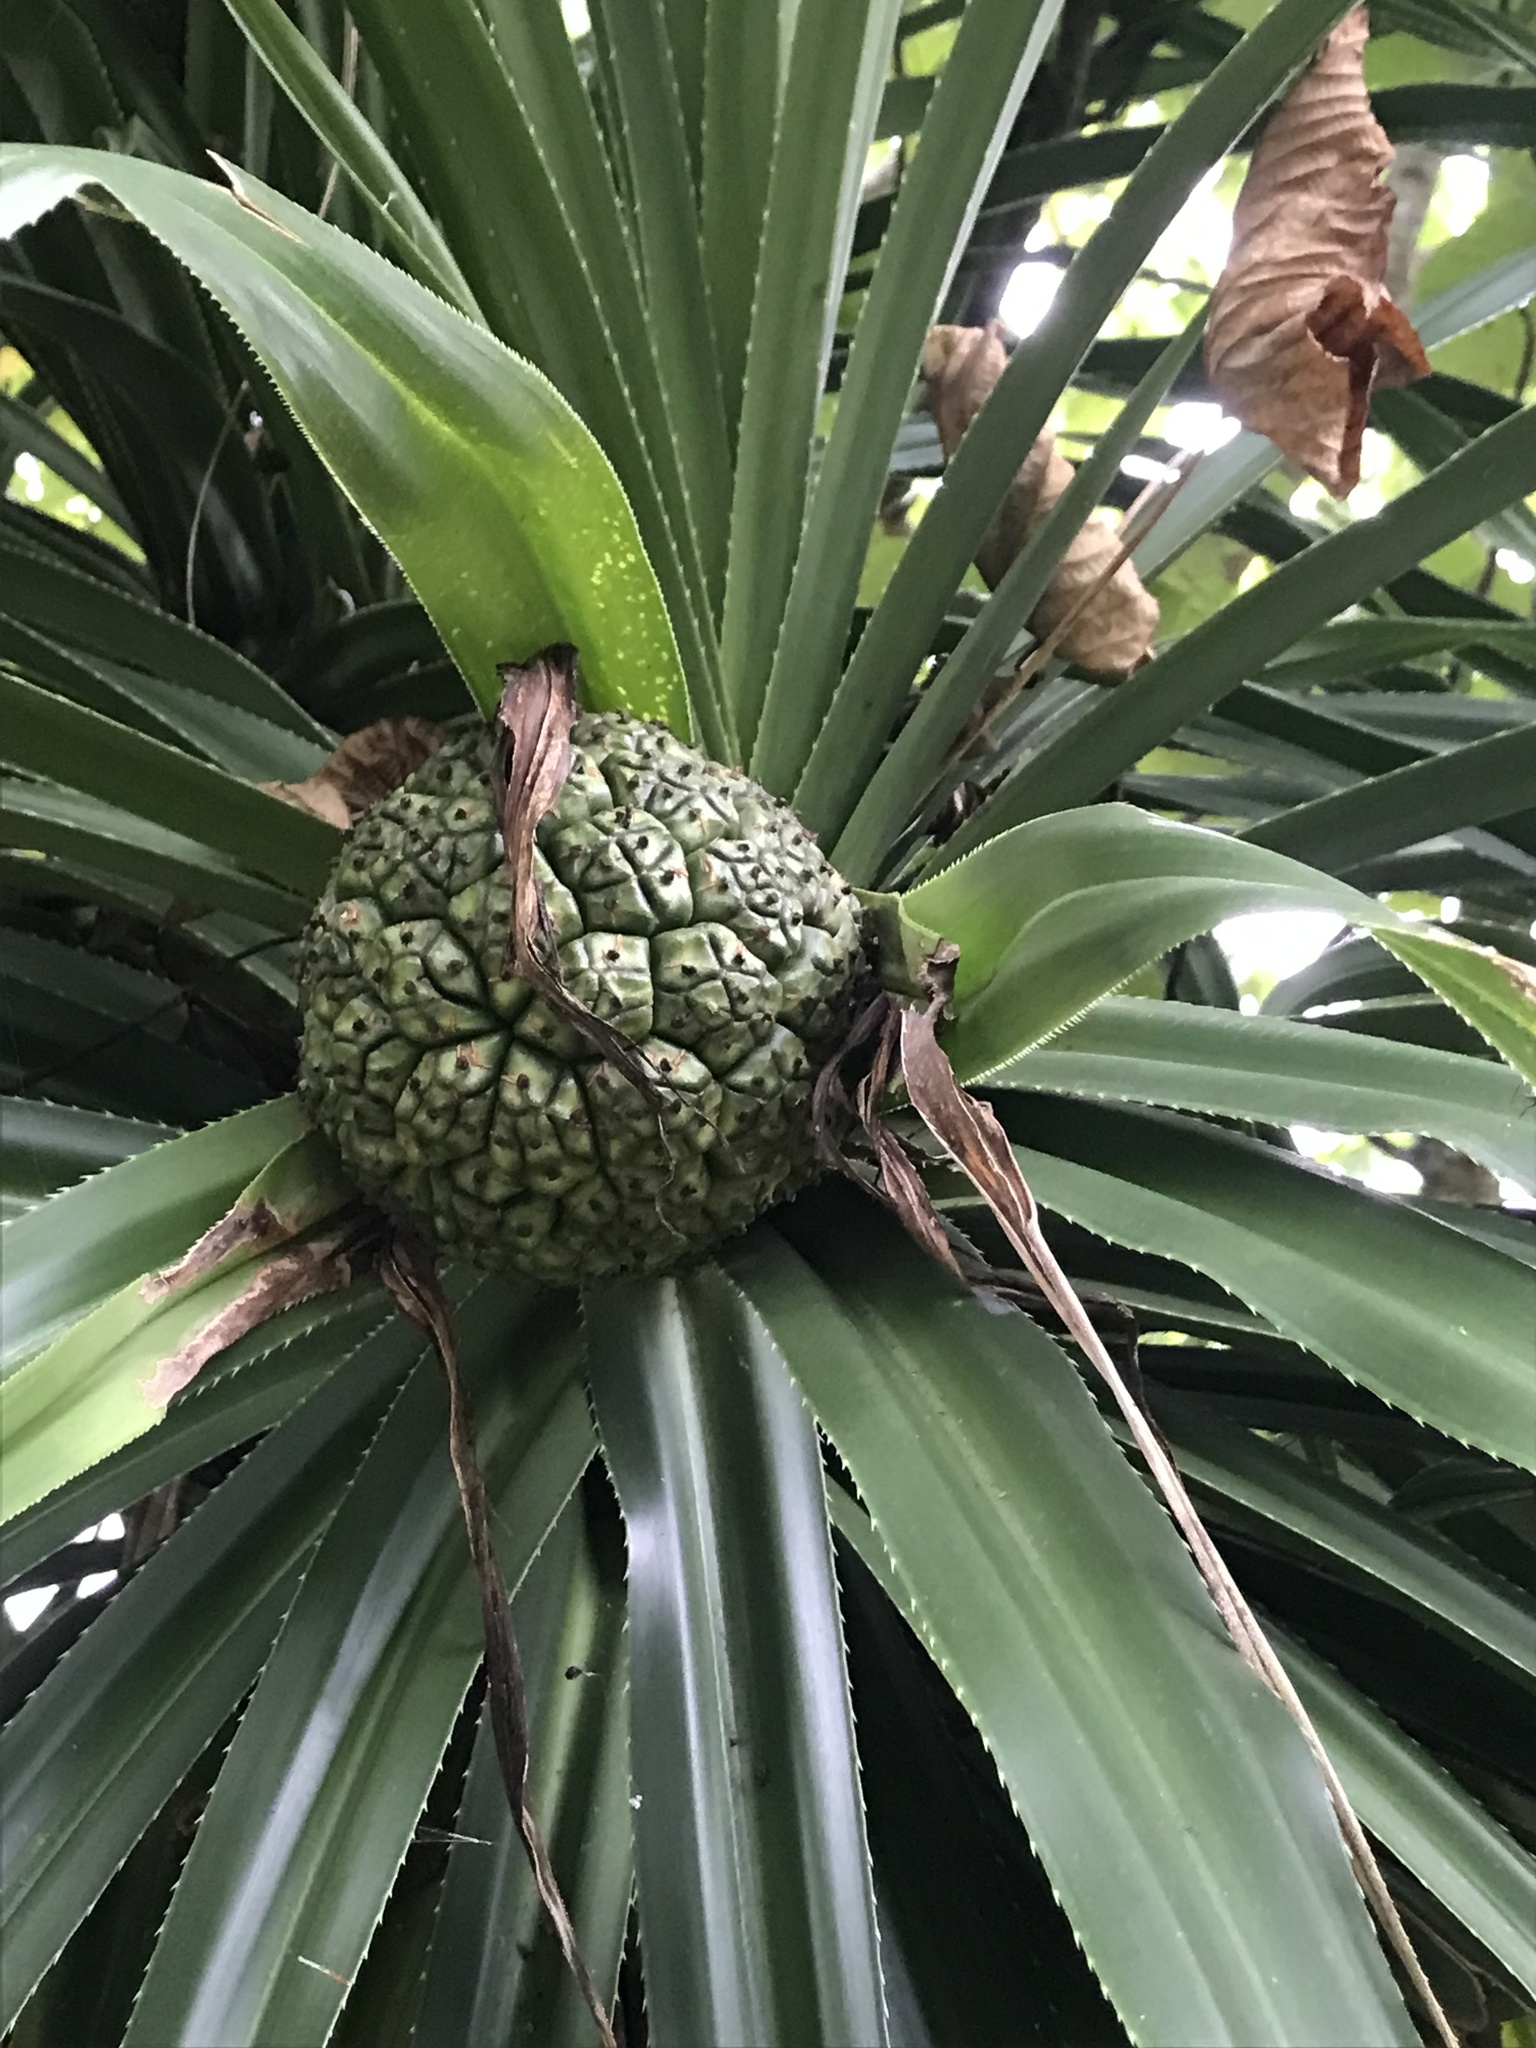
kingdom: Plantae
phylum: Tracheophyta
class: Liliopsida
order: Pandanales
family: Pandanaceae
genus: Pandanus
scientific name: Pandanus tectorius
